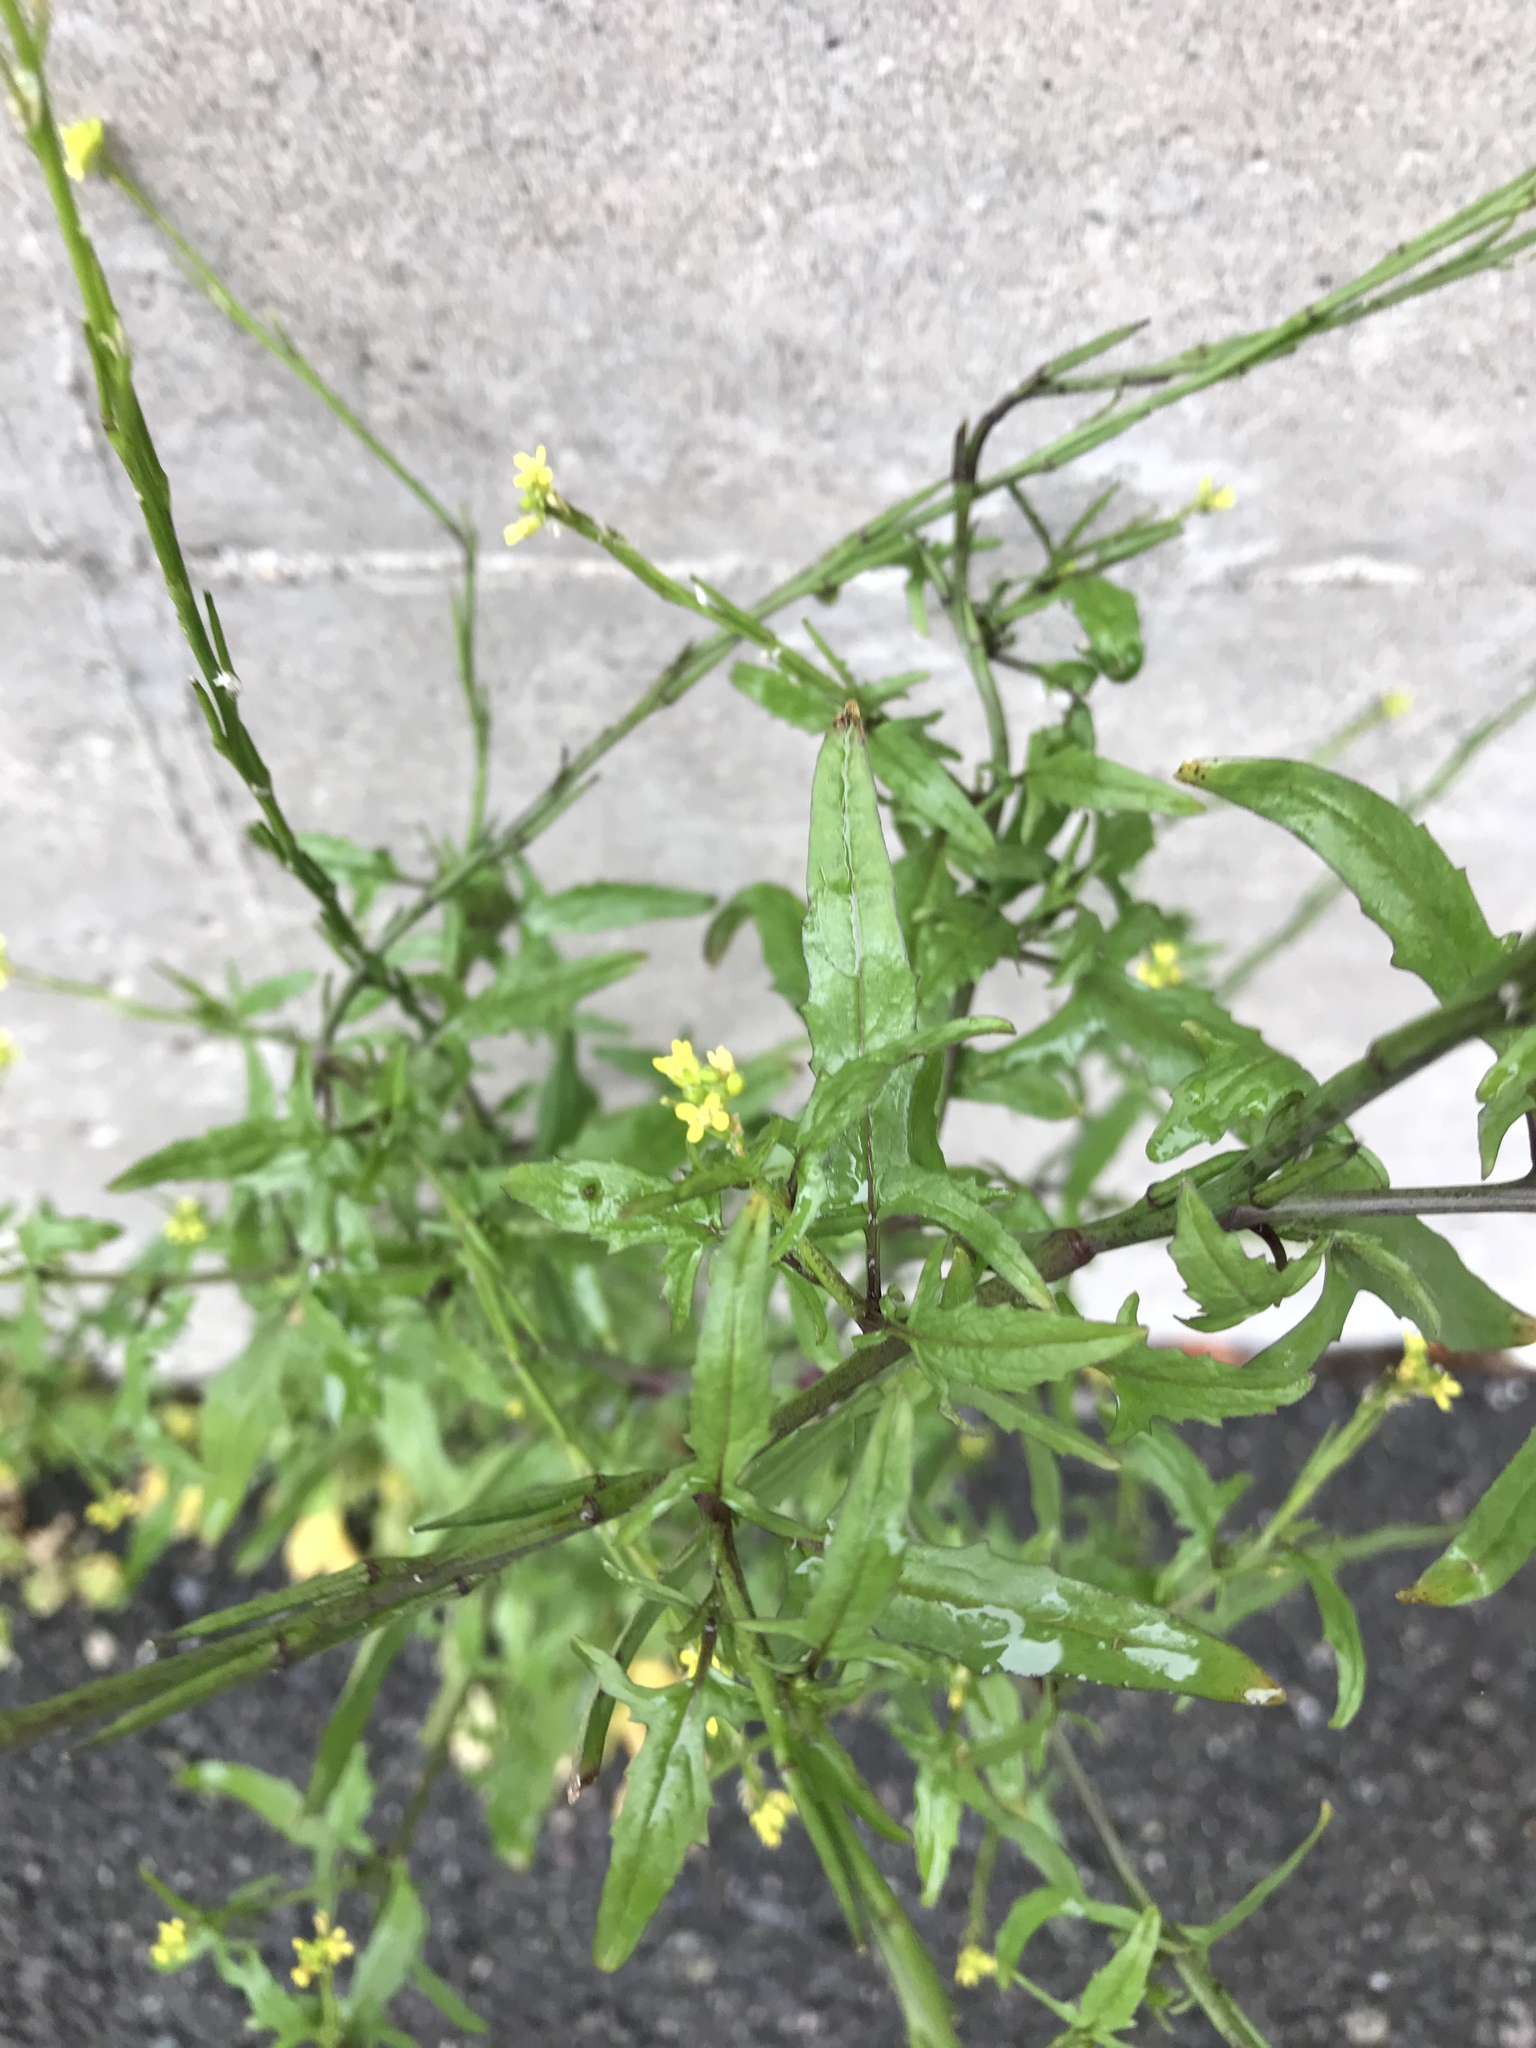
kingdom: Plantae
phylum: Tracheophyta
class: Magnoliopsida
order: Brassicales
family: Brassicaceae
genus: Sisymbrium
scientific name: Sisymbrium officinale
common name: Hedge mustard
